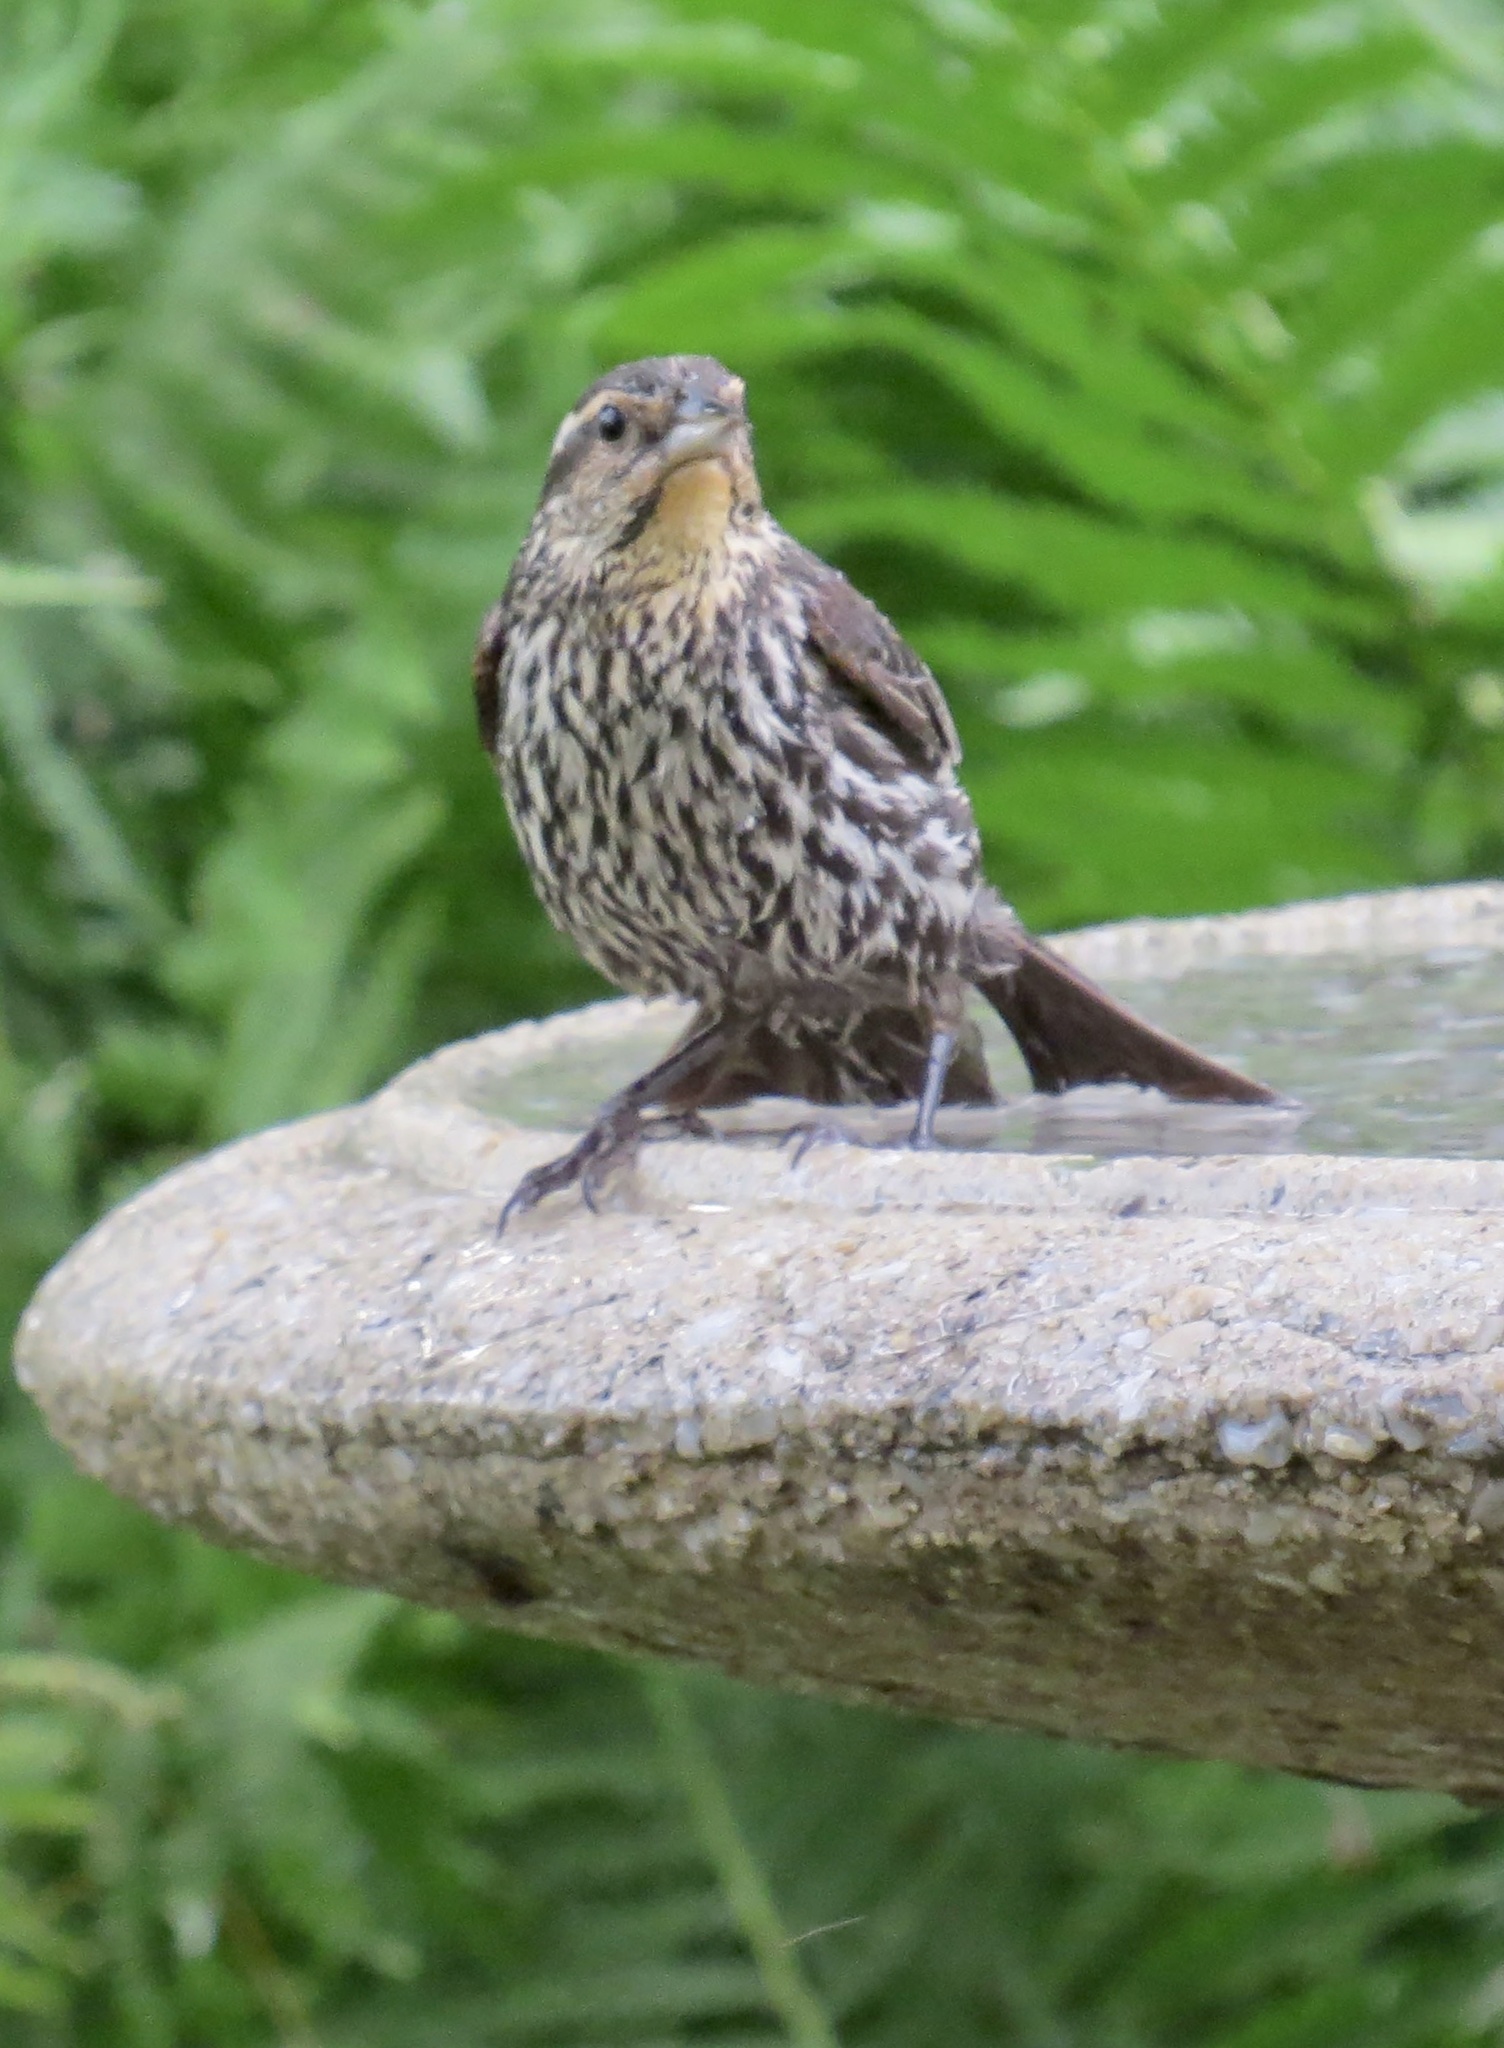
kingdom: Animalia
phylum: Chordata
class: Aves
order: Passeriformes
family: Icteridae
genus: Agelaius
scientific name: Agelaius phoeniceus
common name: Red-winged blackbird
